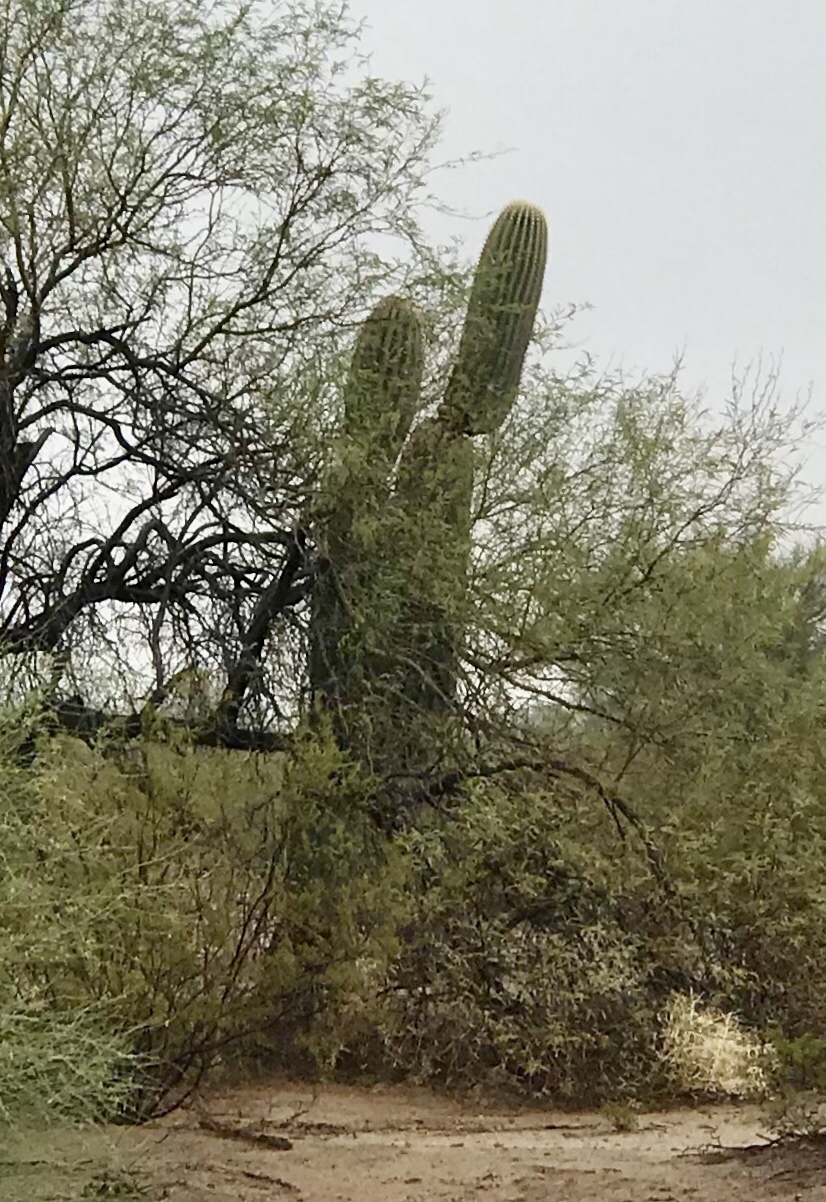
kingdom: Plantae
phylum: Tracheophyta
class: Magnoliopsida
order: Caryophyllales
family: Cactaceae
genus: Carnegiea
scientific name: Carnegiea gigantea
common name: Saguaro
